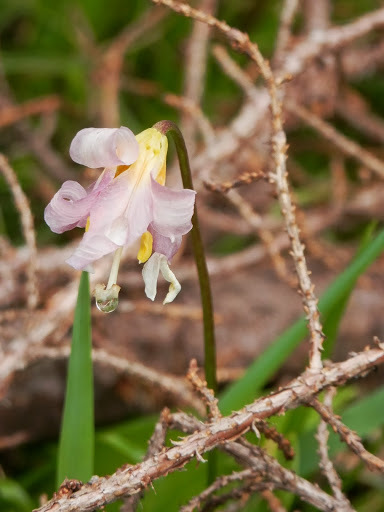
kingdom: Plantae
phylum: Tracheophyta
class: Liliopsida
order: Liliales
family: Liliaceae
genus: Erythronium
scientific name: Erythronium montanum
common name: Avalanche lily
